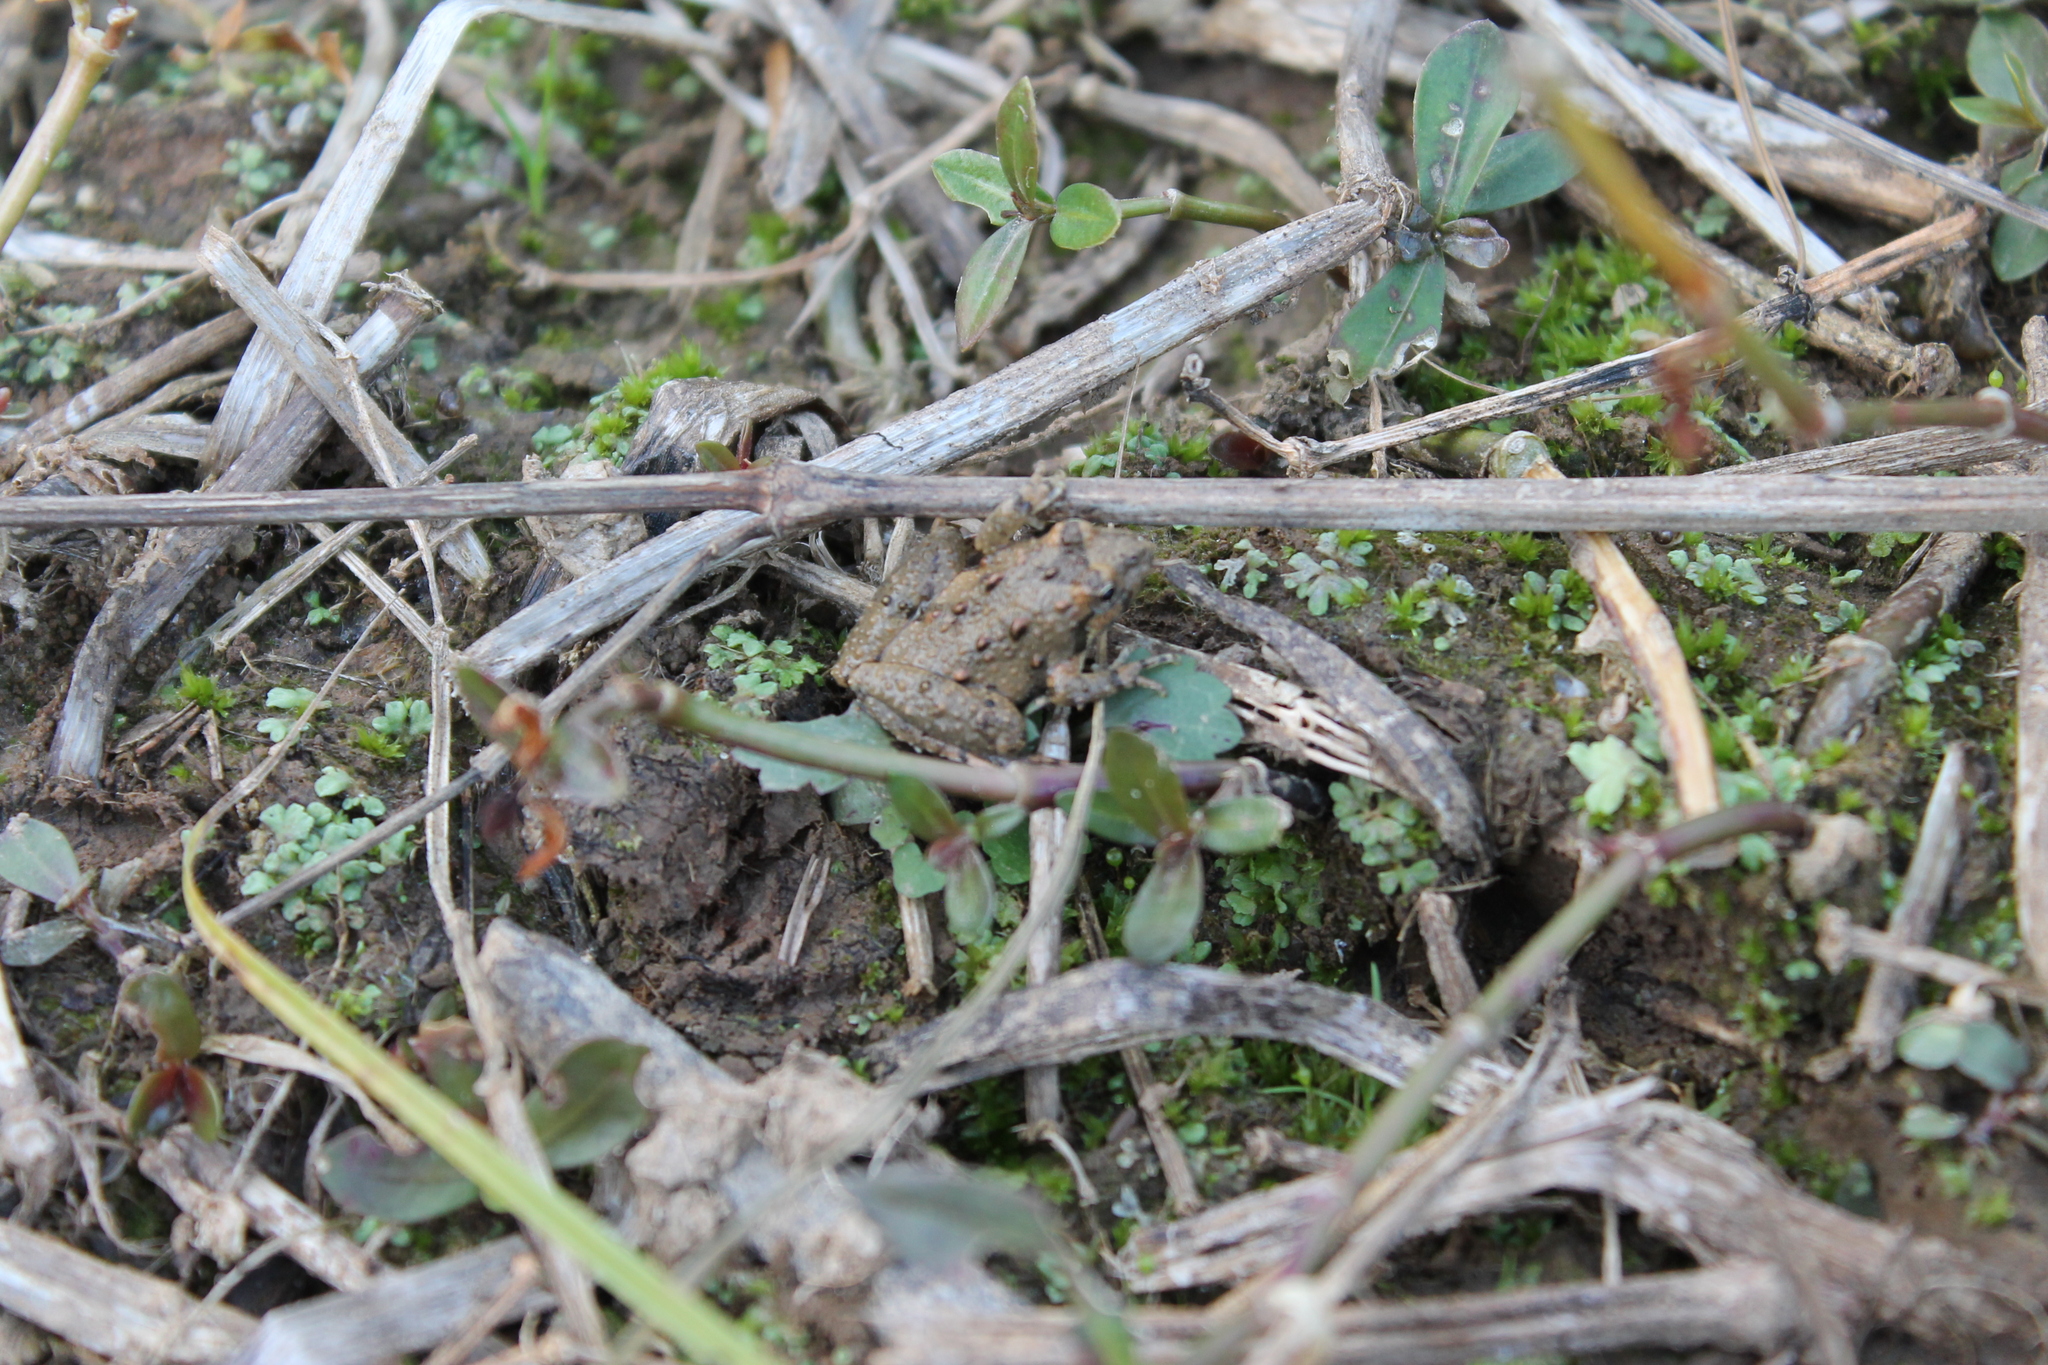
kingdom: Animalia
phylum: Chordata
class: Amphibia
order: Anura
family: Hylidae
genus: Acris
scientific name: Acris crepitans
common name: Northern cricket frog
